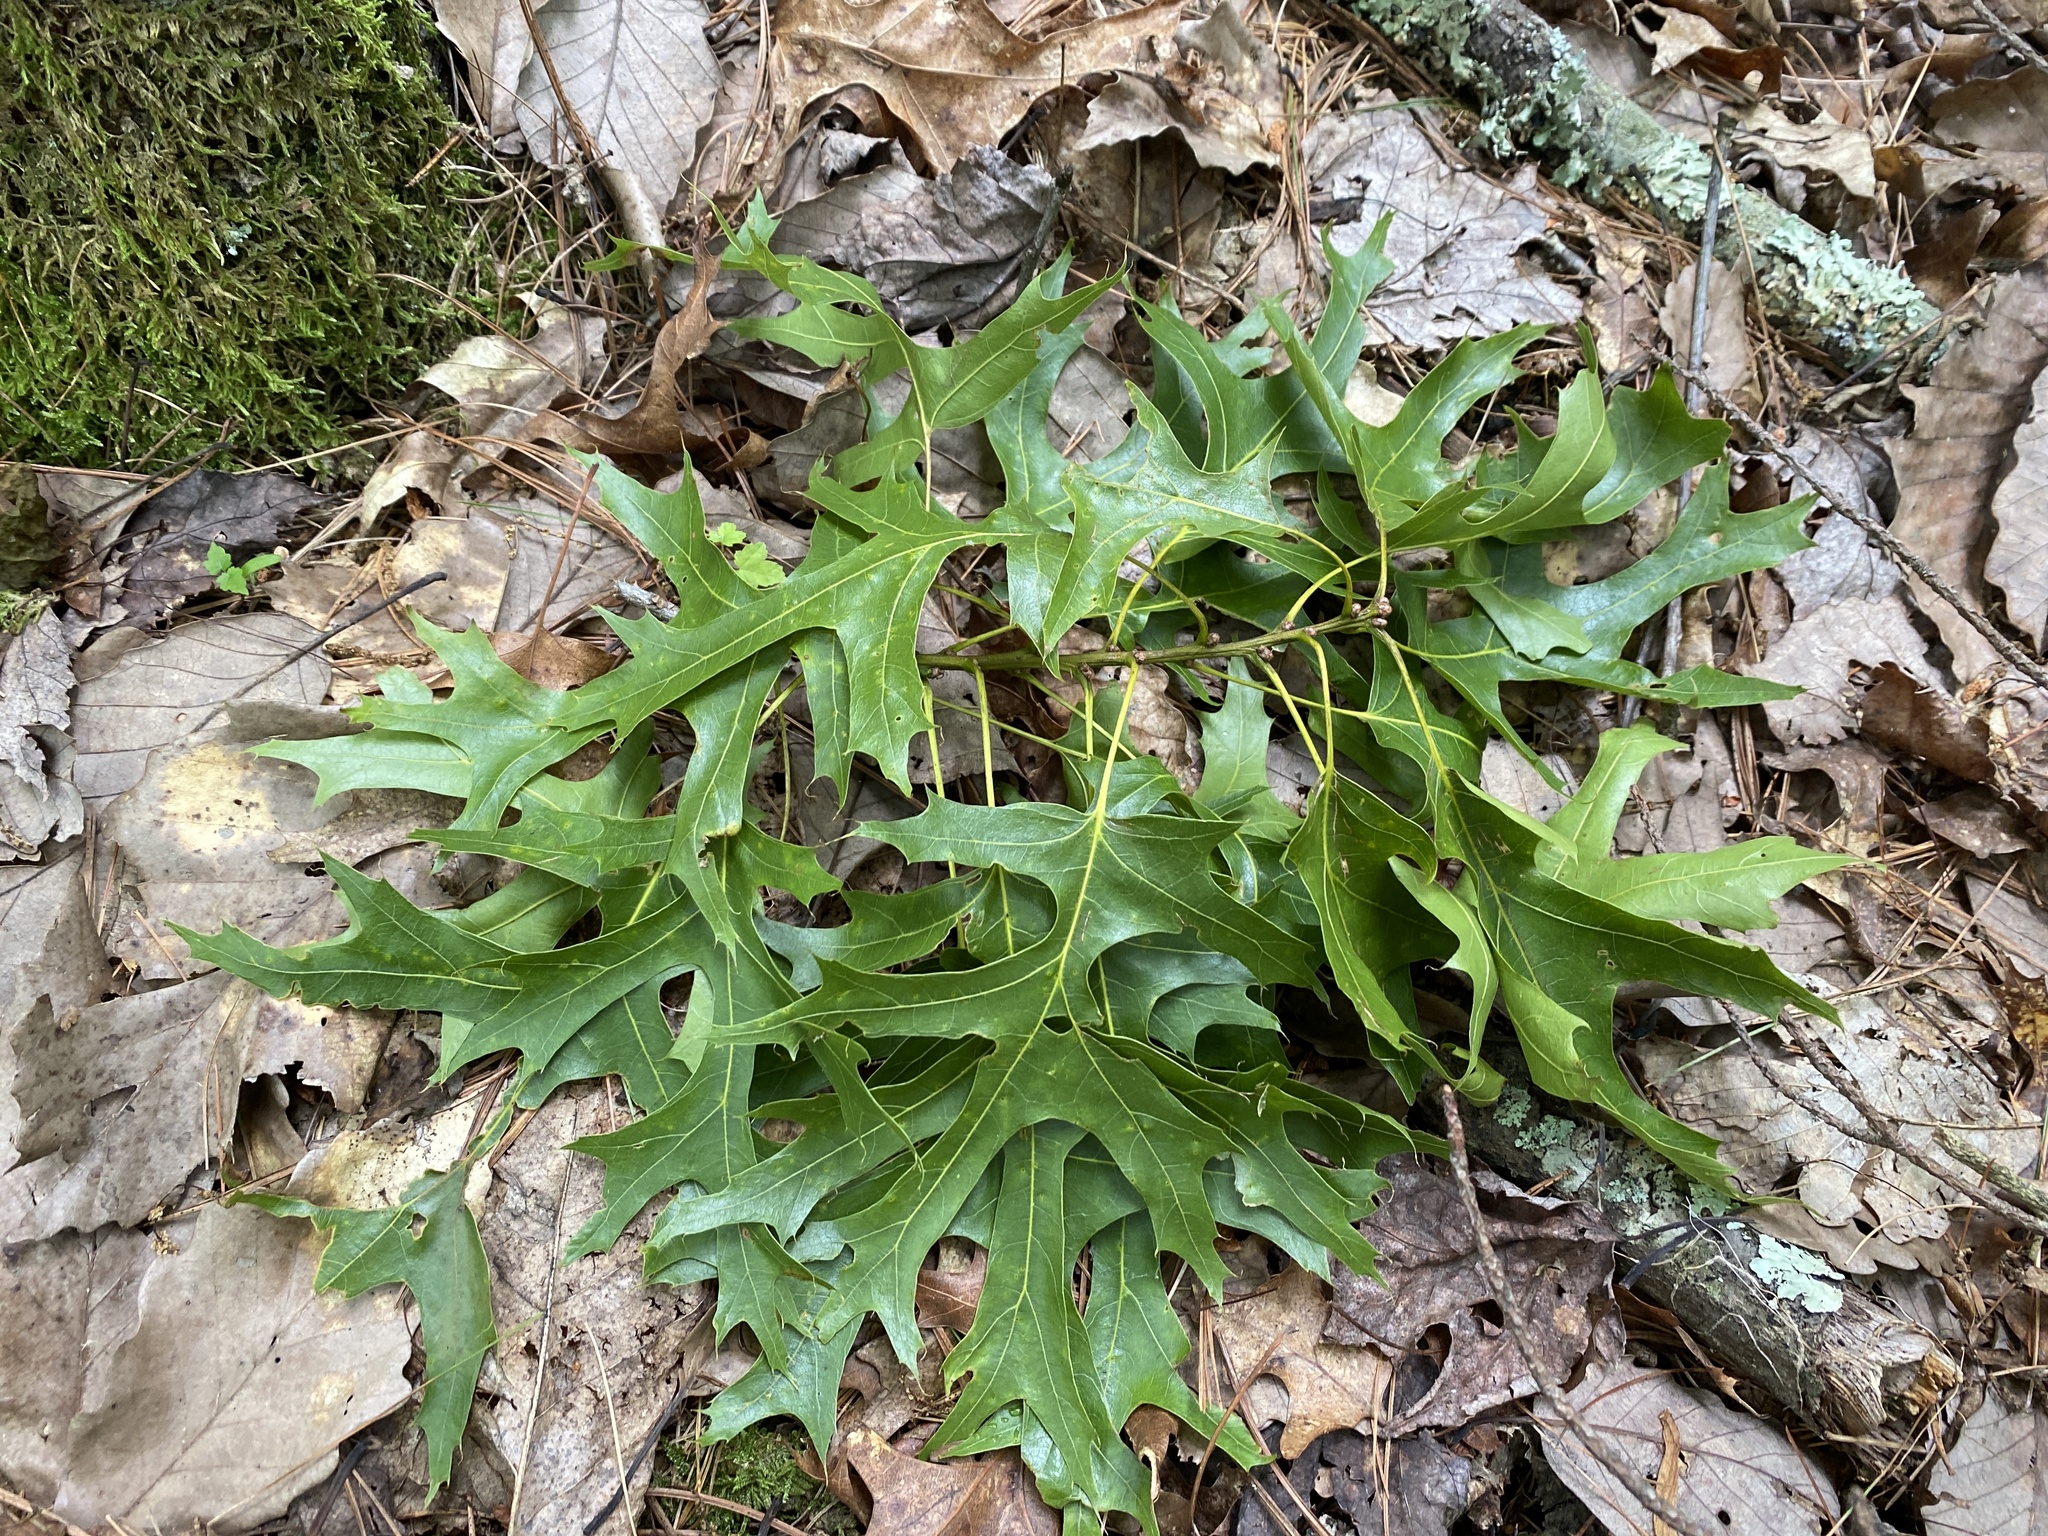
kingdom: Plantae
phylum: Tracheophyta
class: Magnoliopsida
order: Fagales
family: Fagaceae
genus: Quercus
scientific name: Quercus coccinea
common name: Scarlet oak
